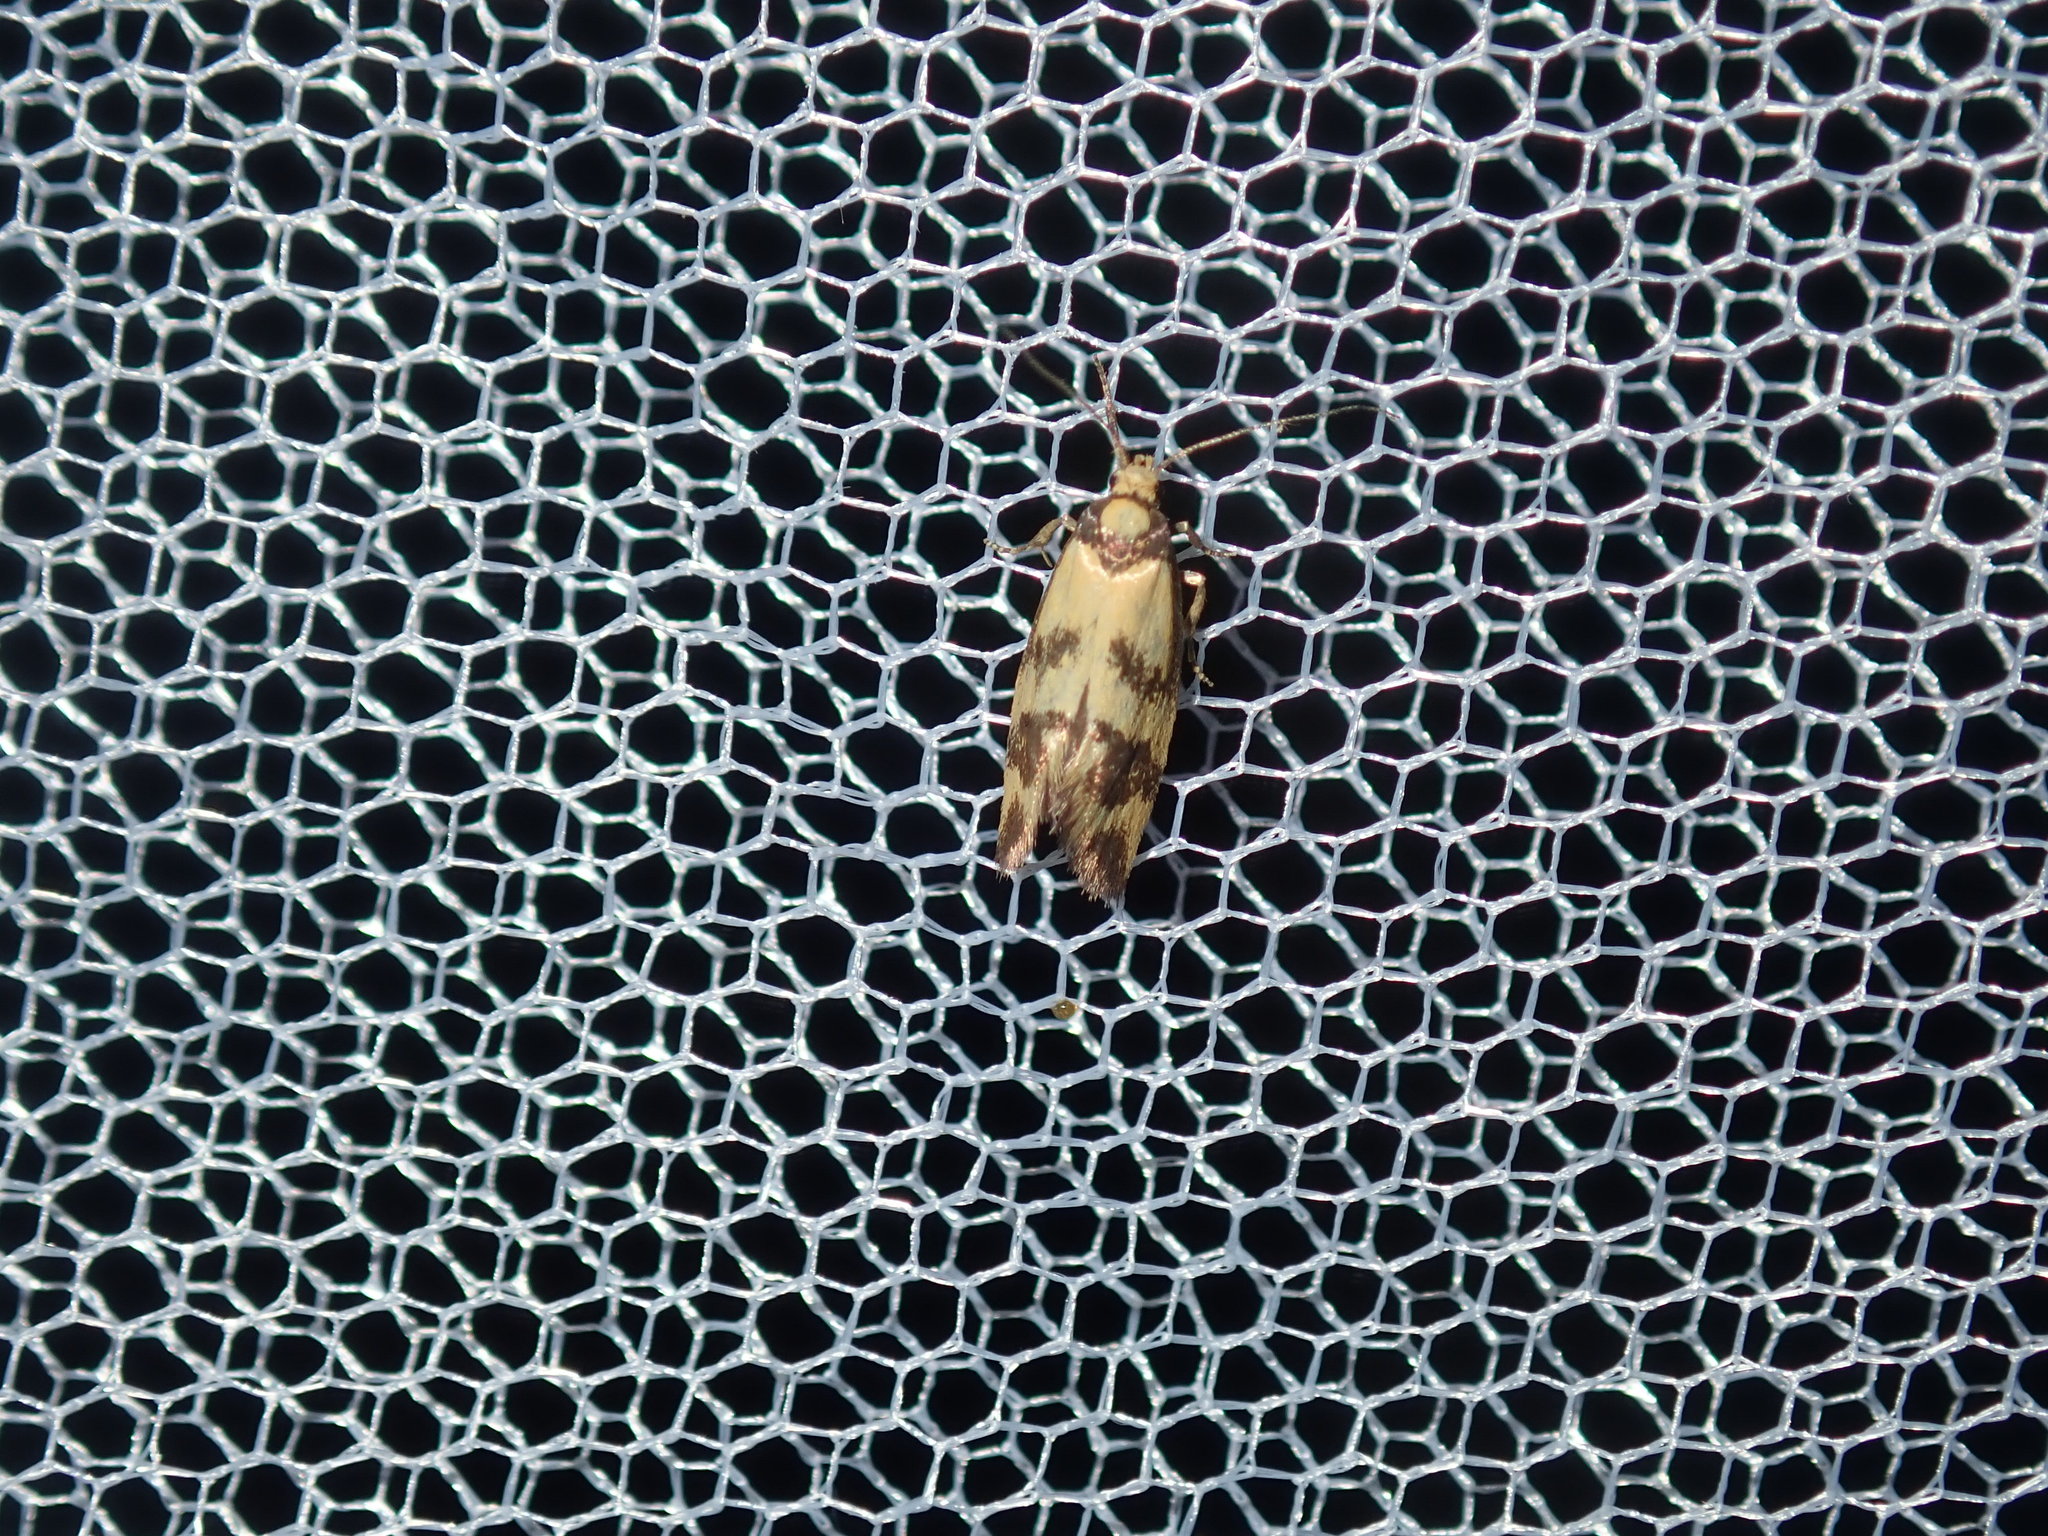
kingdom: Animalia
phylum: Arthropoda
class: Insecta
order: Lepidoptera
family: Oecophoridae
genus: Olbonoma
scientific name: Olbonoma triptycha
